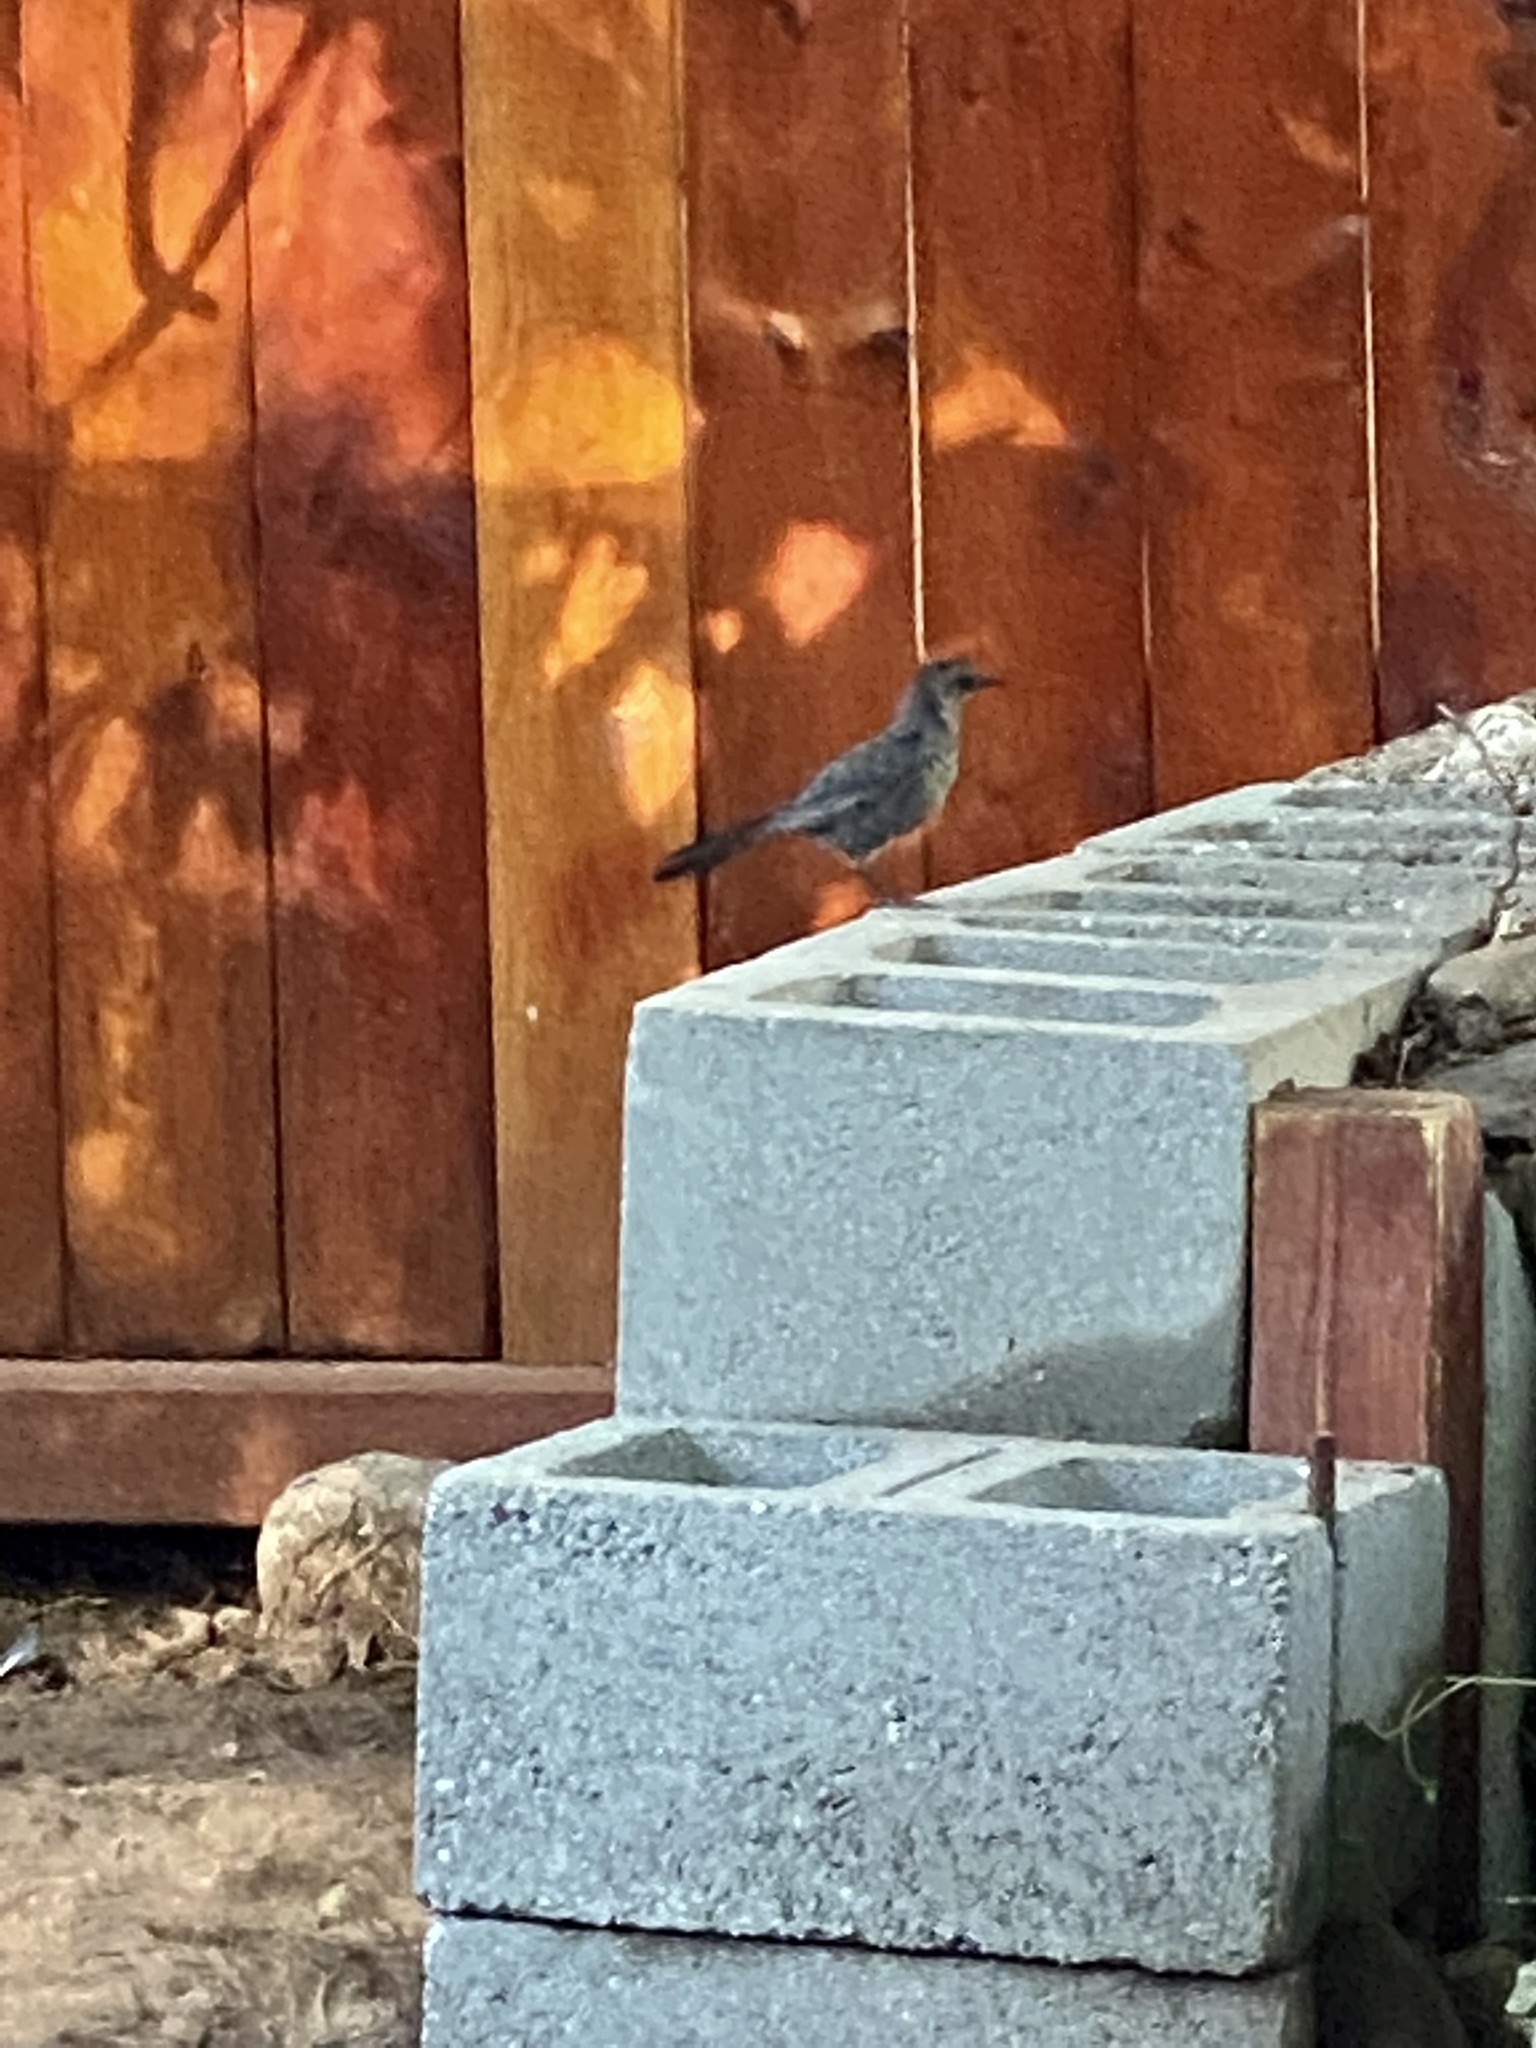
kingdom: Animalia
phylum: Chordata
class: Aves
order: Passeriformes
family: Mimidae
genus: Dumetella
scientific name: Dumetella carolinensis
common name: Gray catbird
